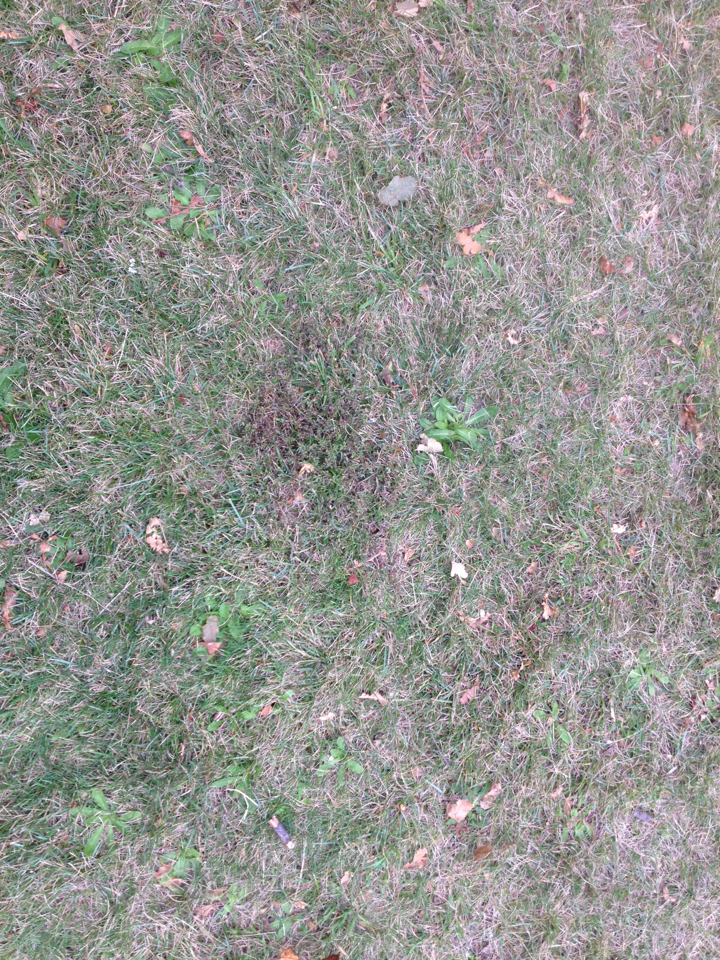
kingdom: Plantae
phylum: Tracheophyta
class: Magnoliopsida
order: Myrtales
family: Myrtaceae
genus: Leptospermum
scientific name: Leptospermum scoparium
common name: Broom tea-tree
